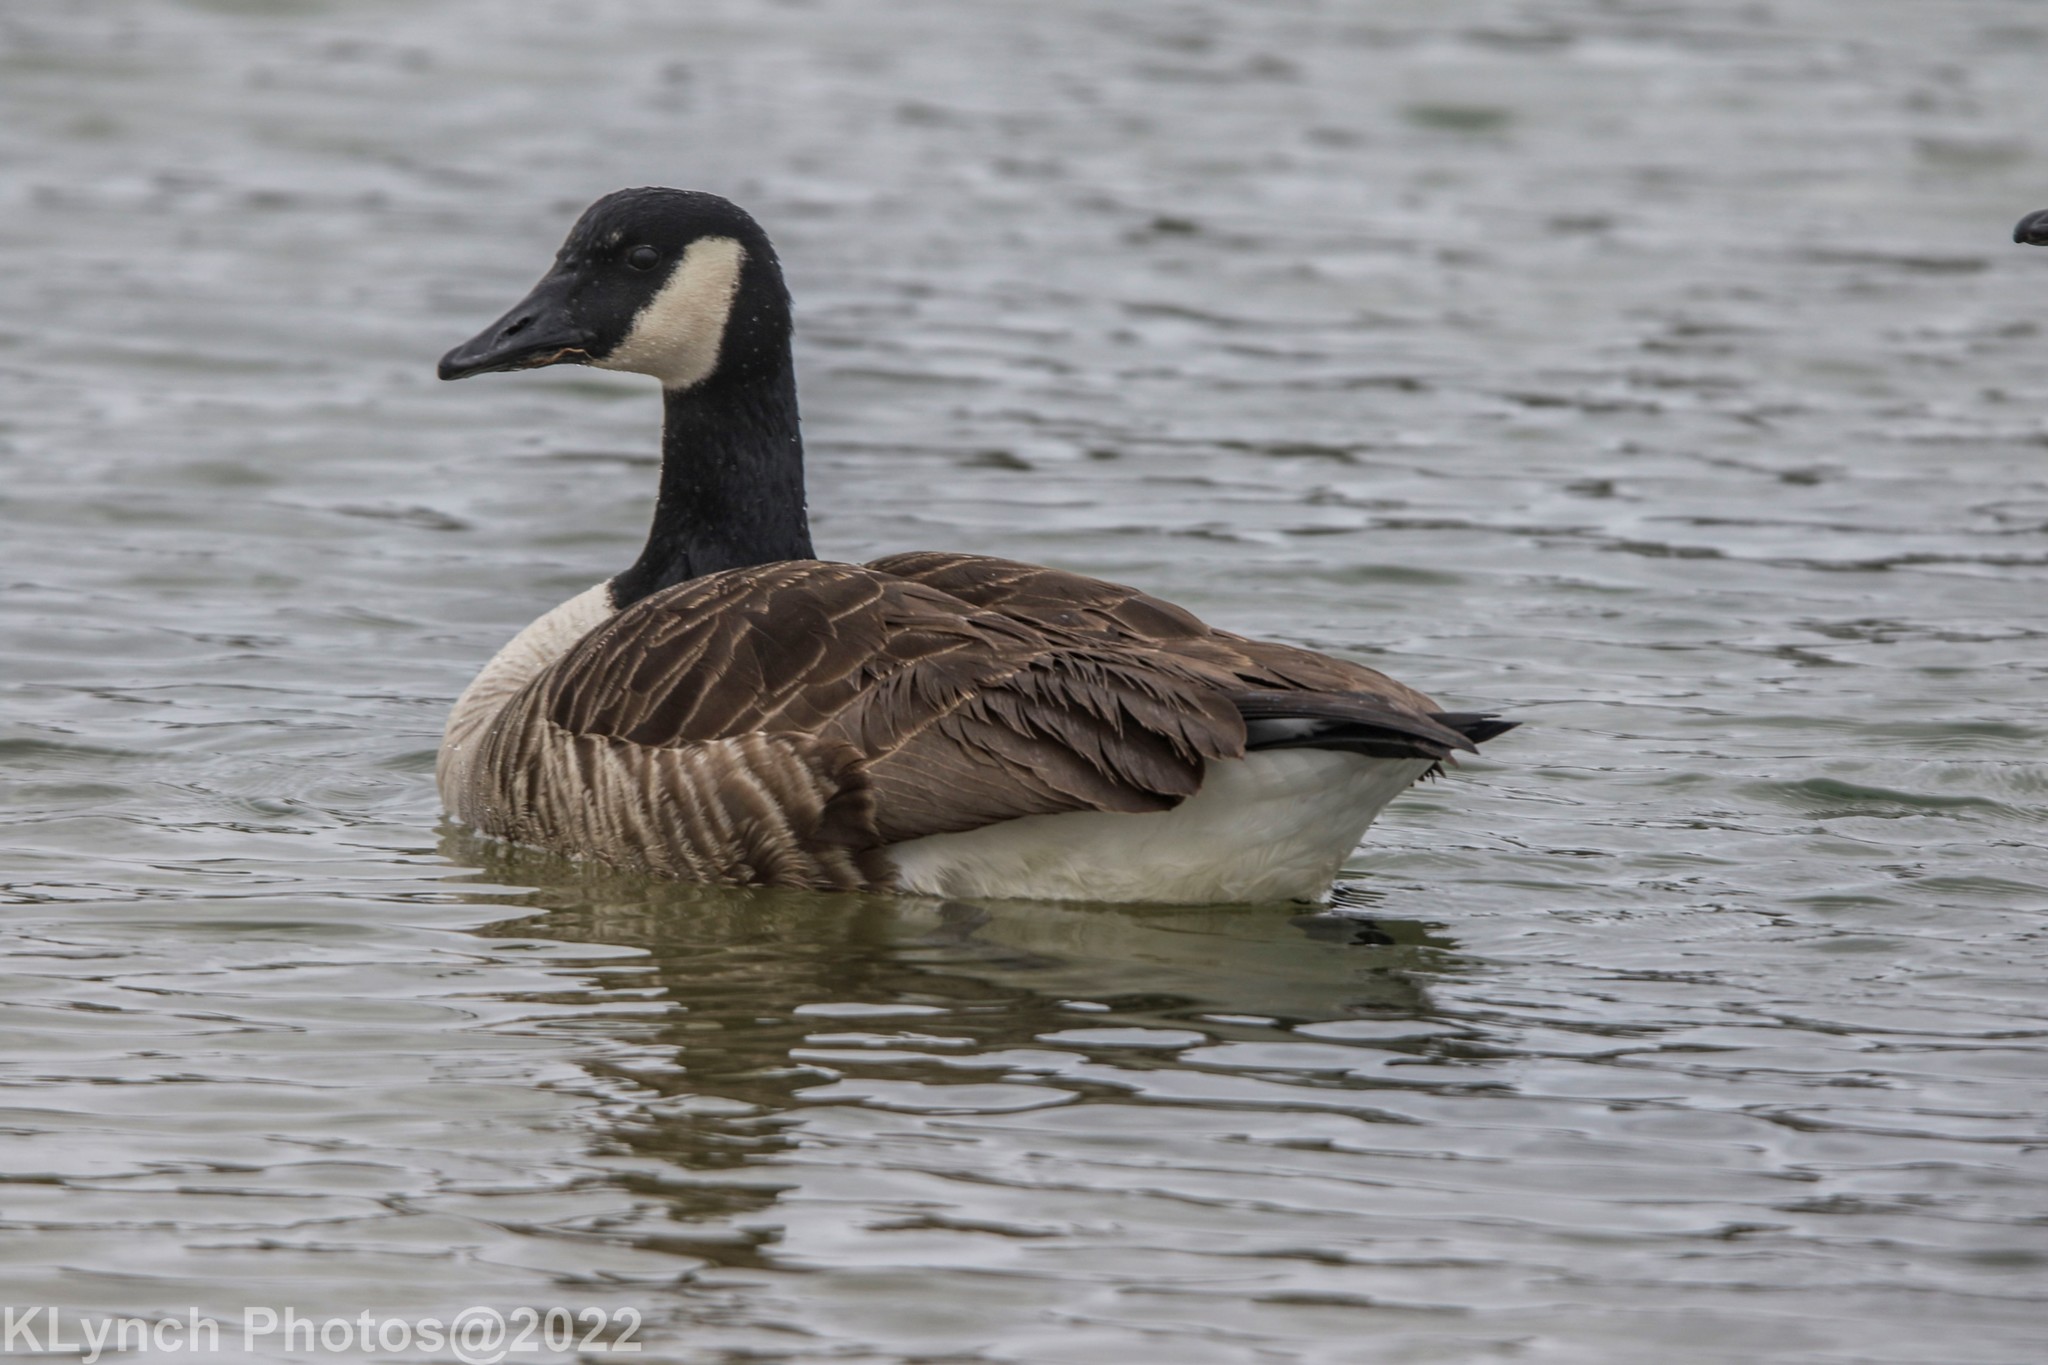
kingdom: Animalia
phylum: Chordata
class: Aves
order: Anseriformes
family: Anatidae
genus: Branta
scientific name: Branta canadensis
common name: Canada goose
